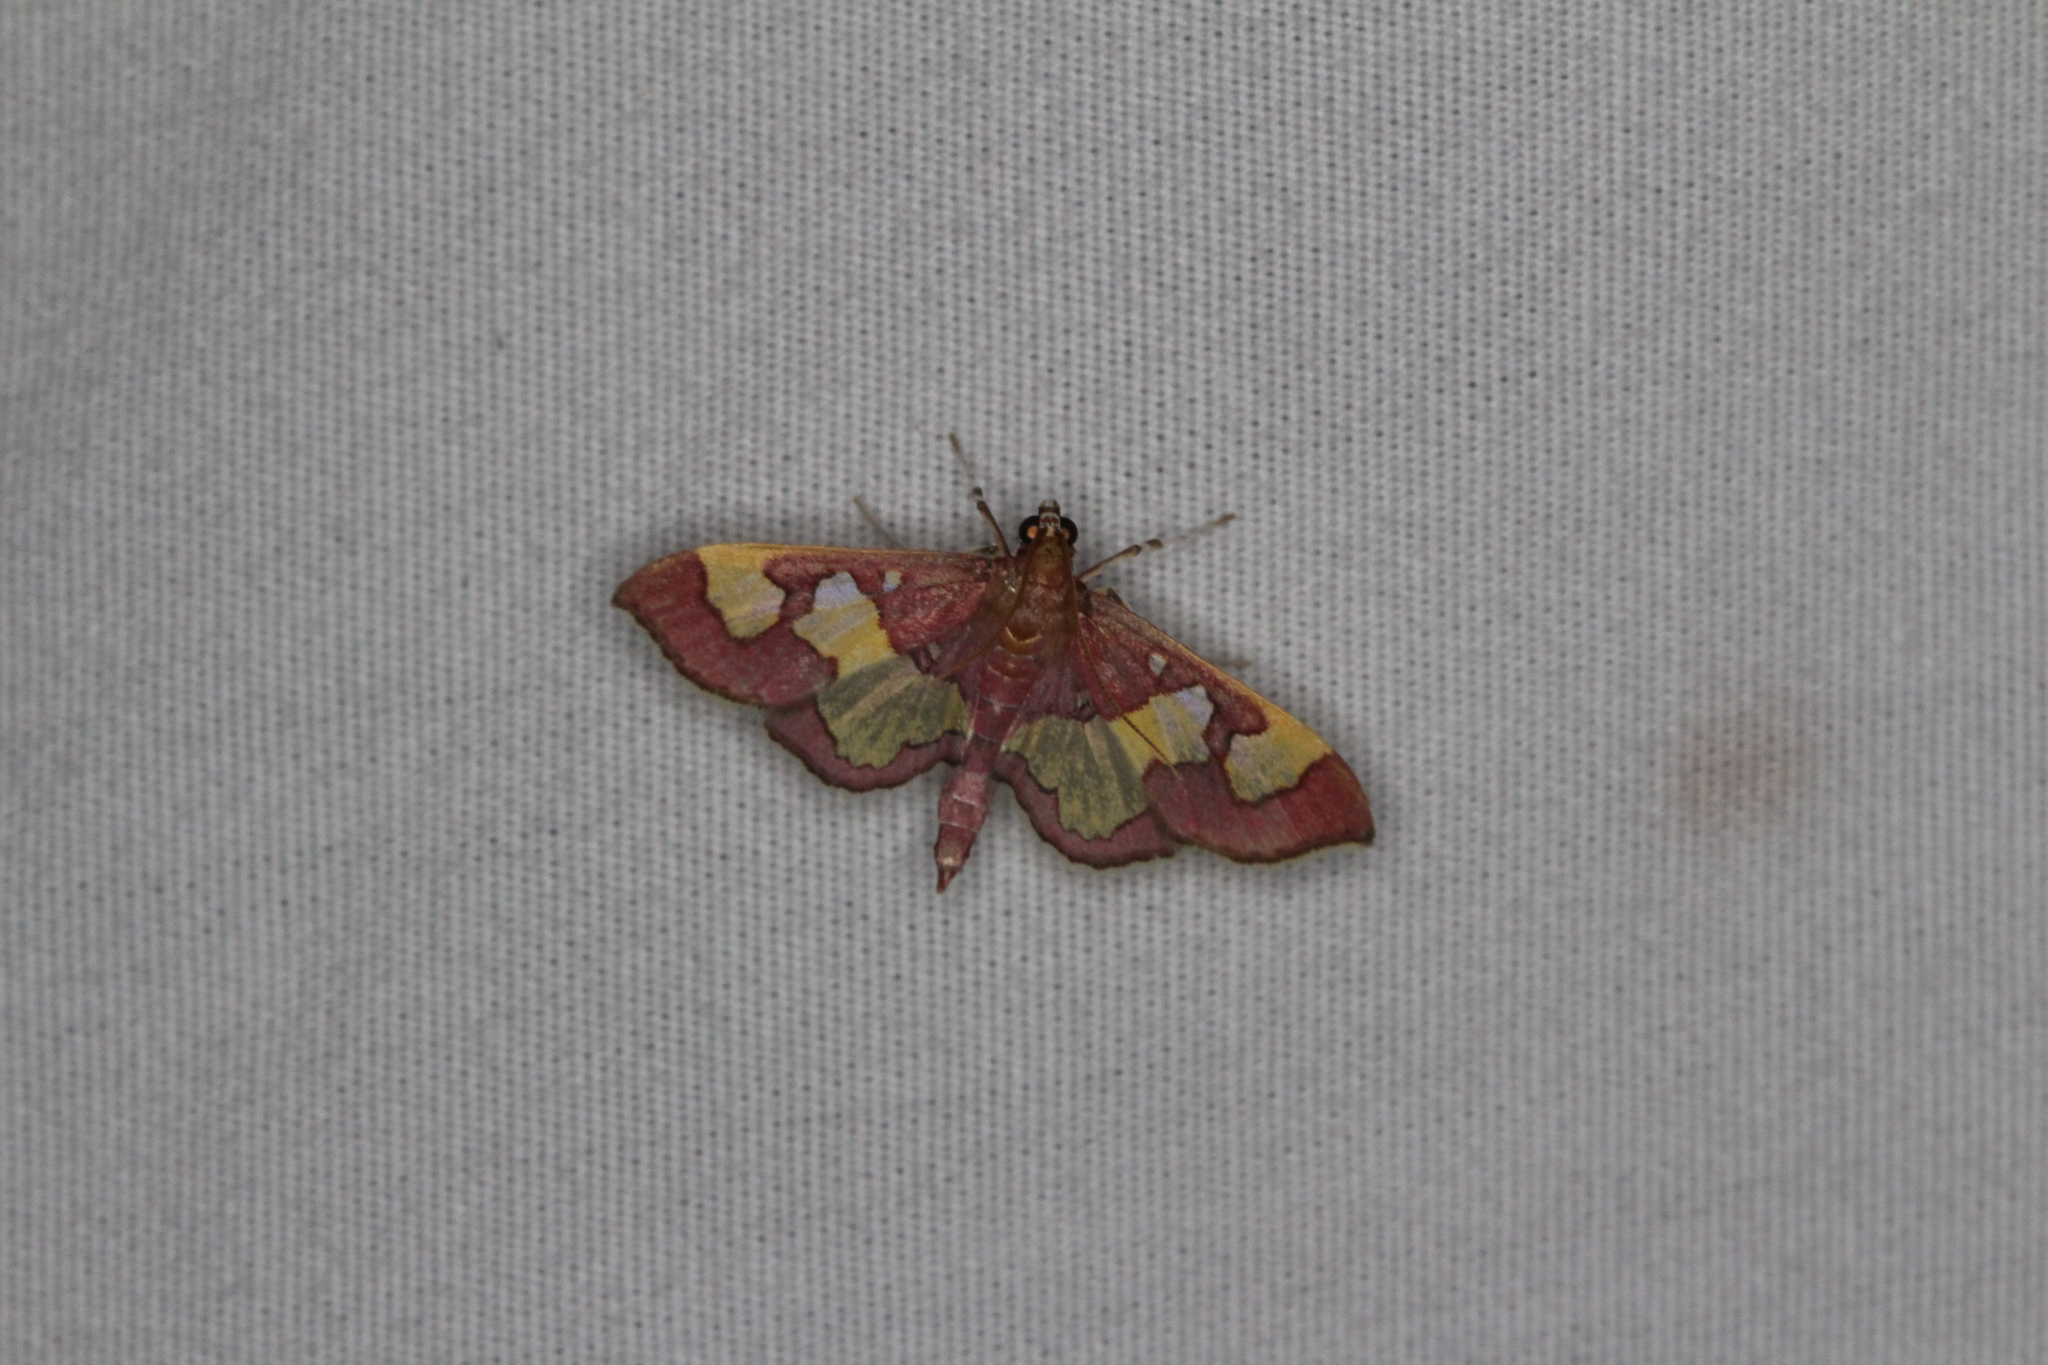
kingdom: Animalia
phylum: Arthropoda
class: Insecta
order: Lepidoptera
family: Crambidae
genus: Colomychus
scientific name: Colomychus talis
